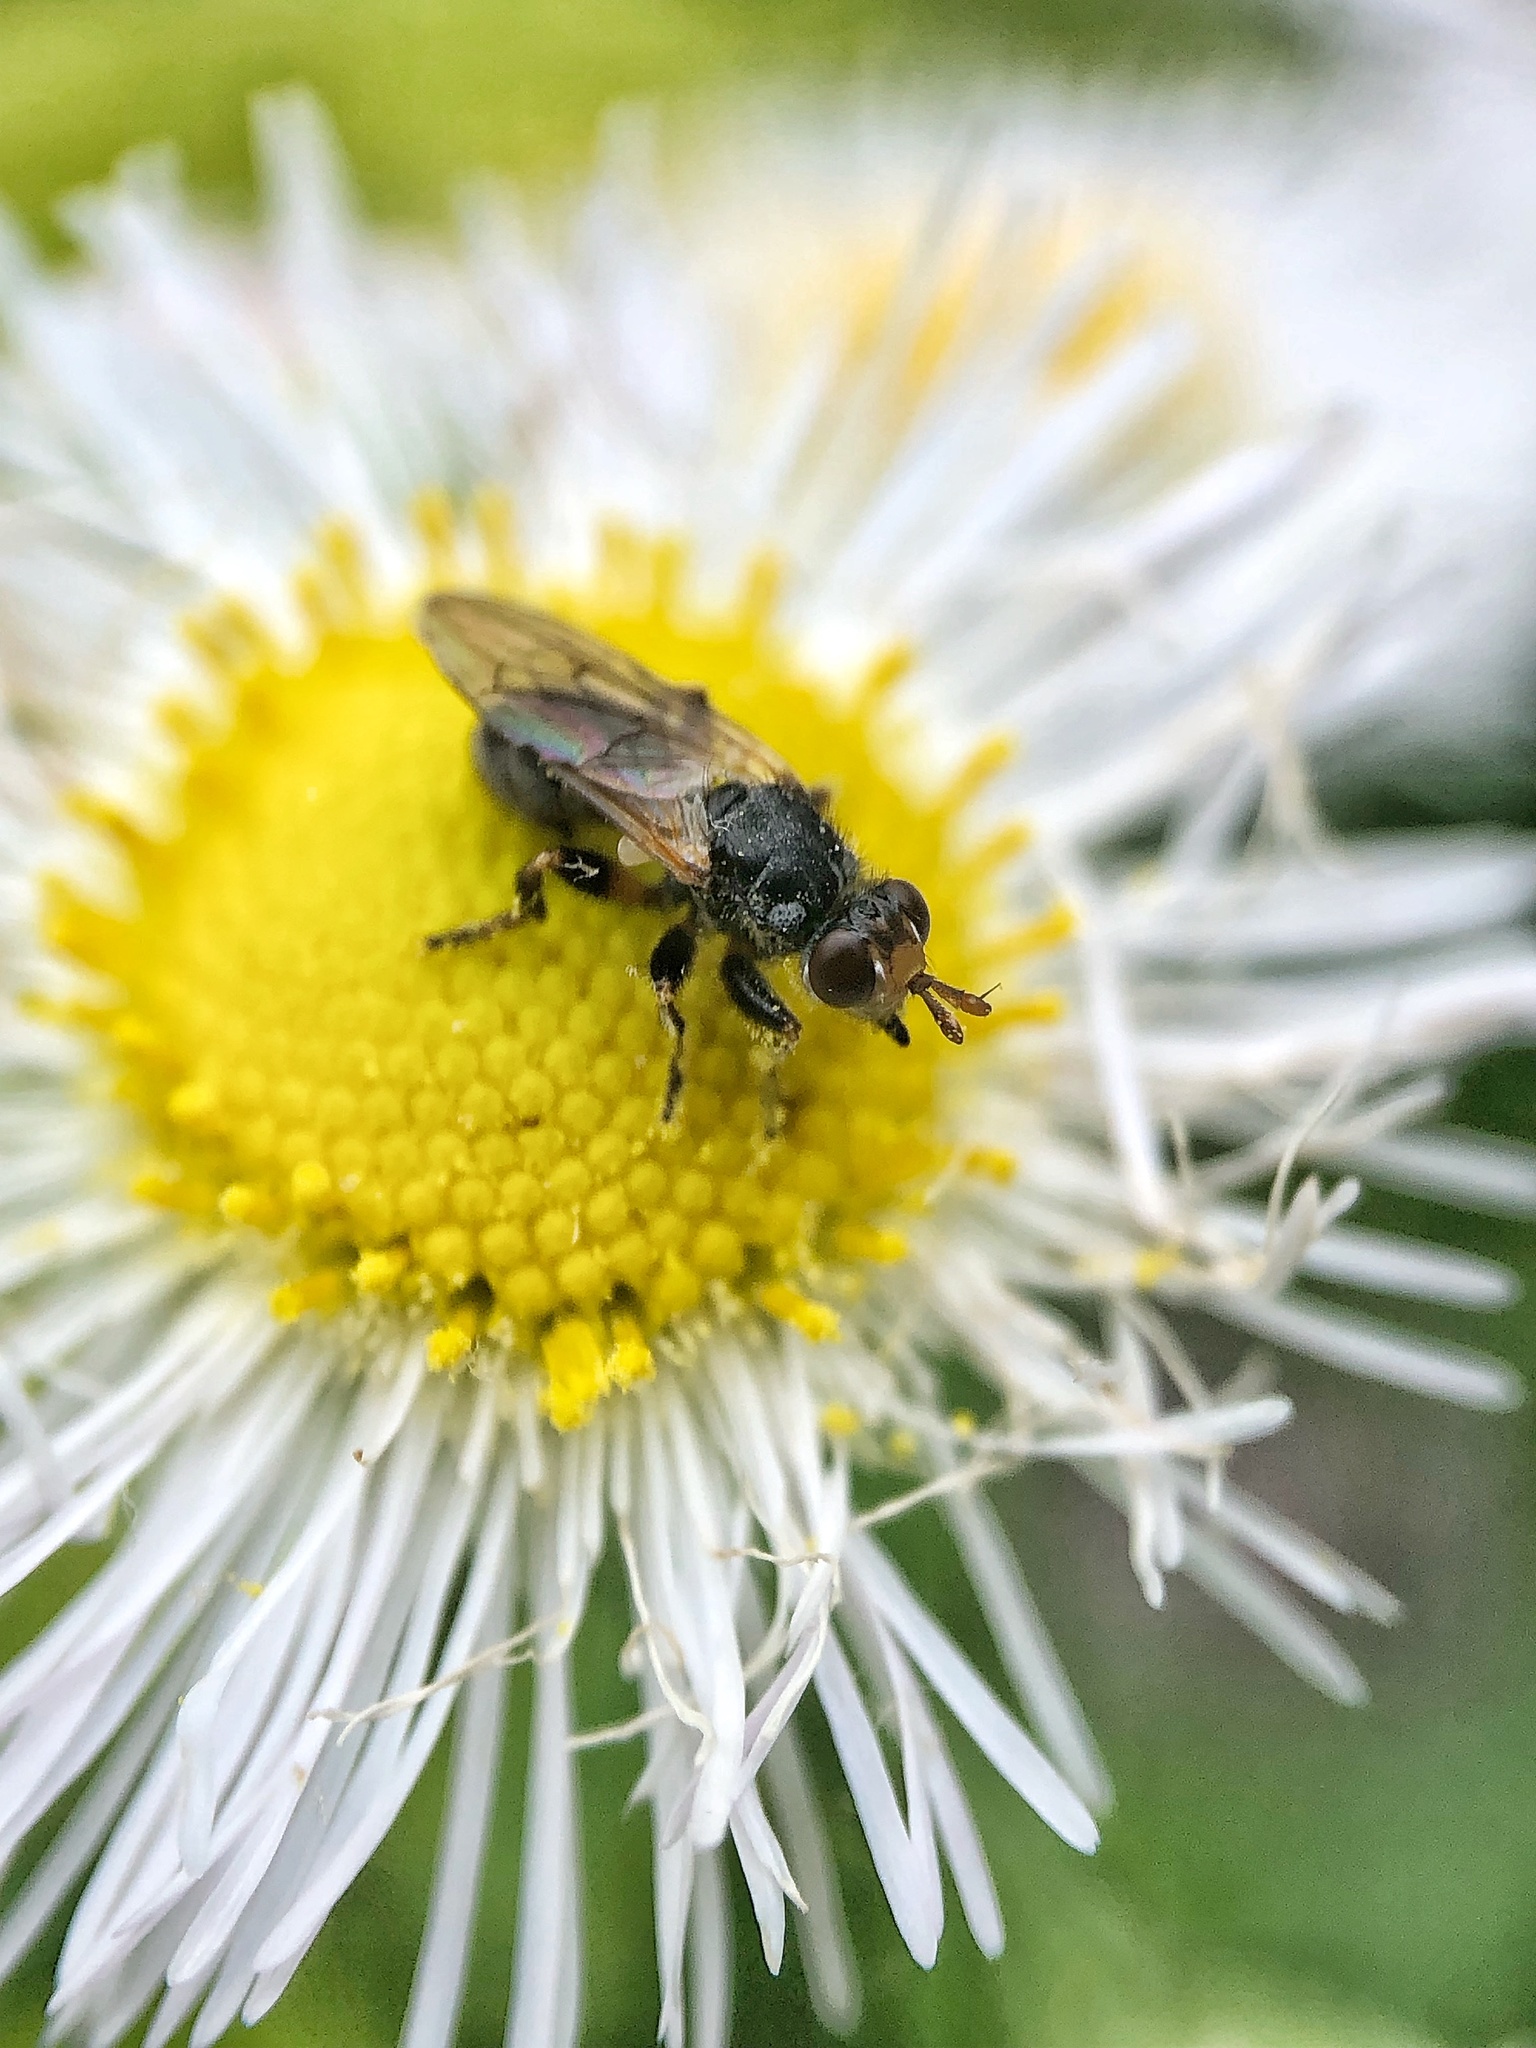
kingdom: Animalia
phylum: Arthropoda
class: Insecta
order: Diptera
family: Conopidae
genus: Thecophora
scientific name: Thecophora occidensis
